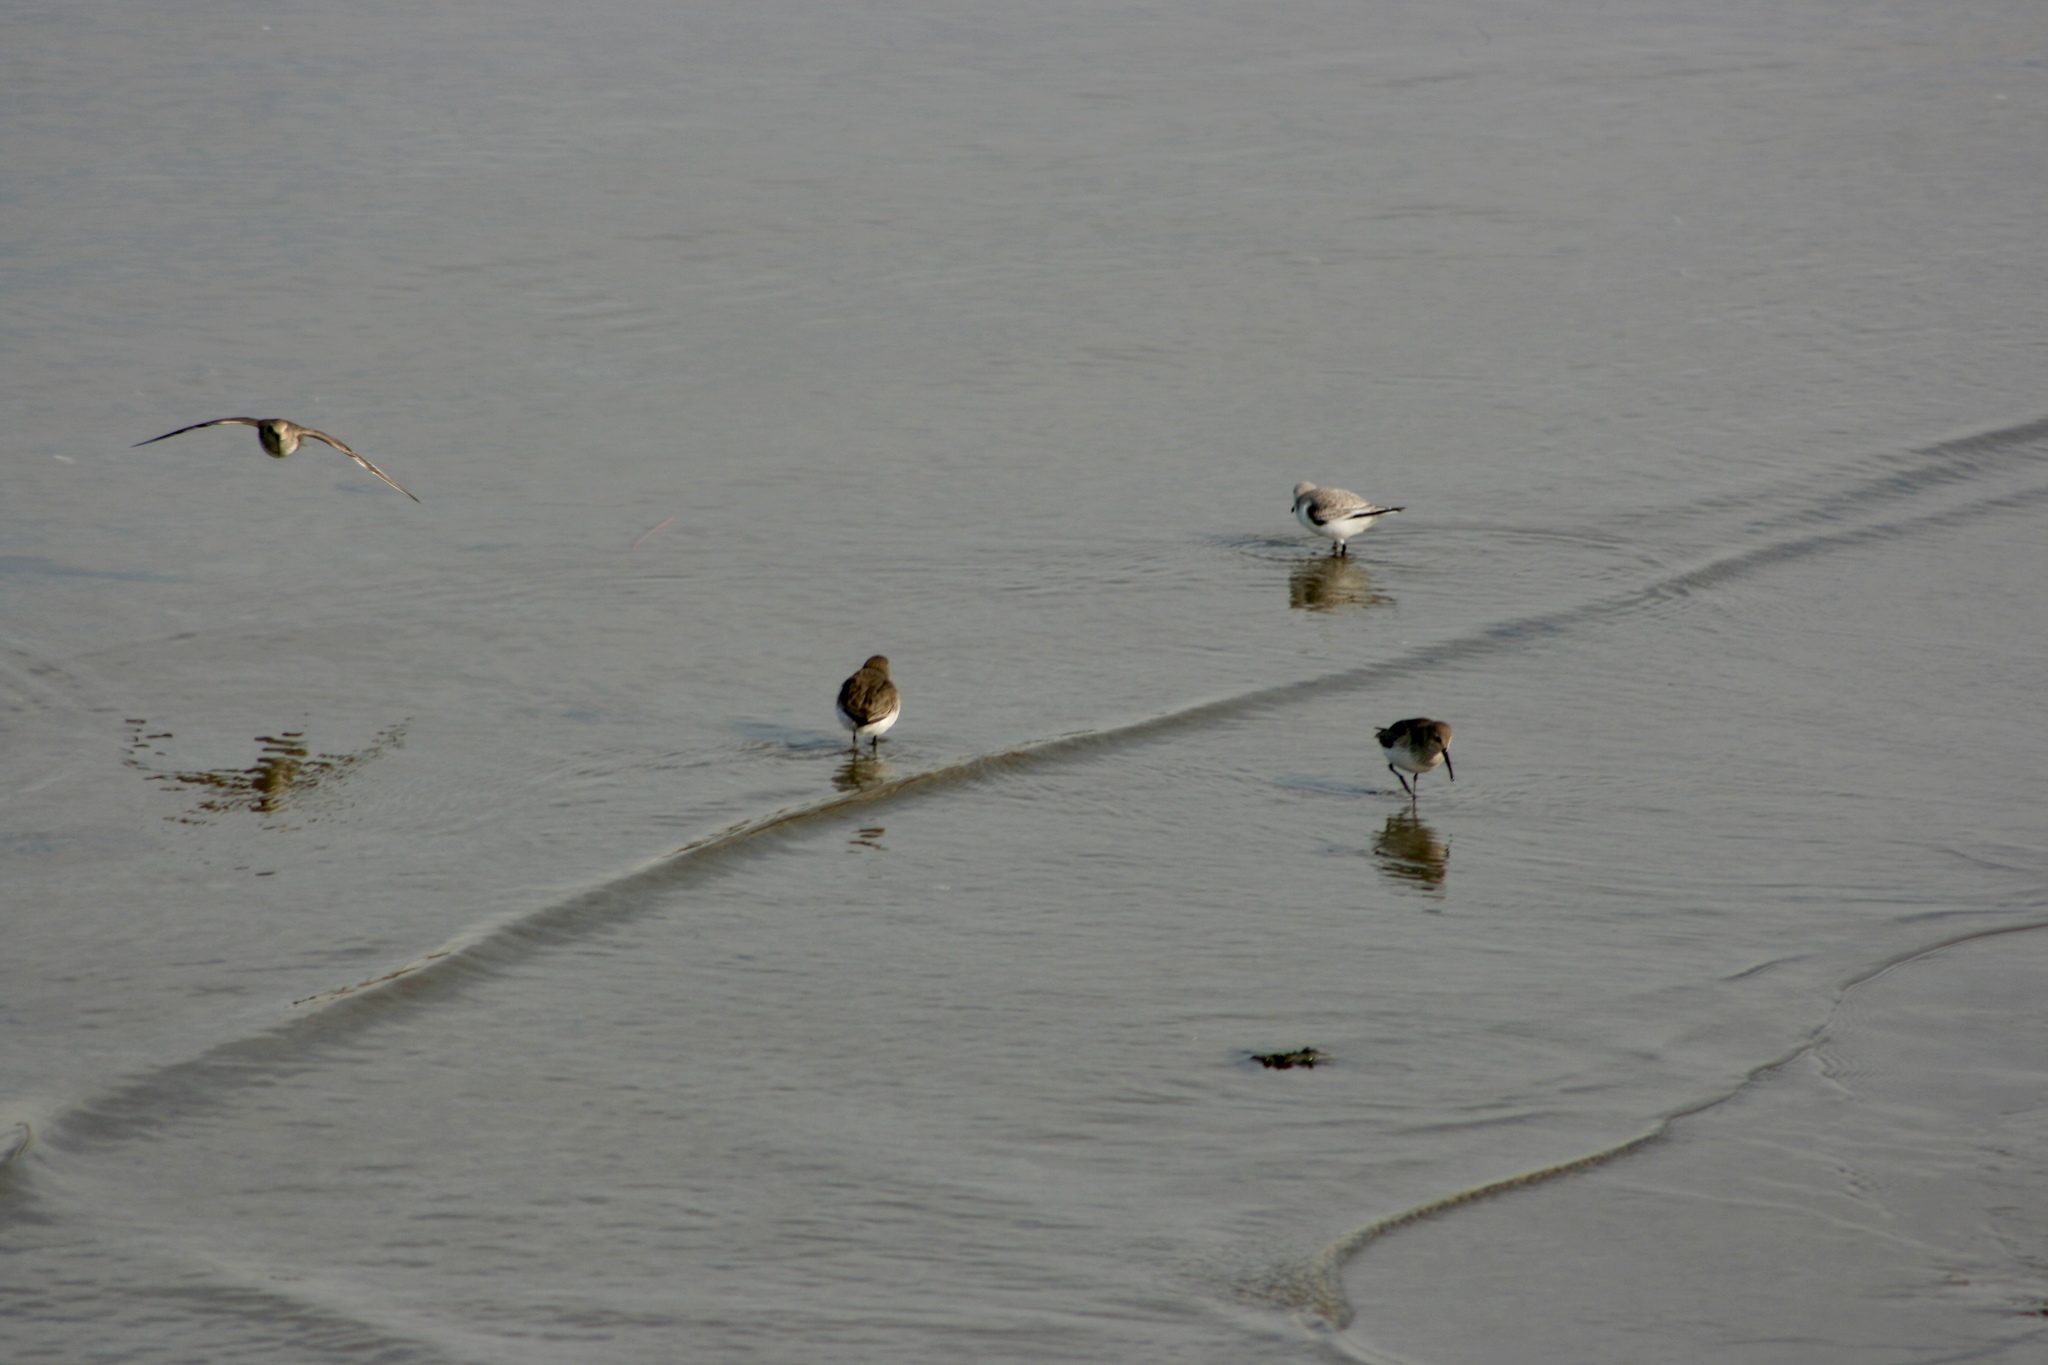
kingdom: Animalia
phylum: Chordata
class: Aves
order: Charadriiformes
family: Scolopacidae
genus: Calidris
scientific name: Calidris alpina
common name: Dunlin
